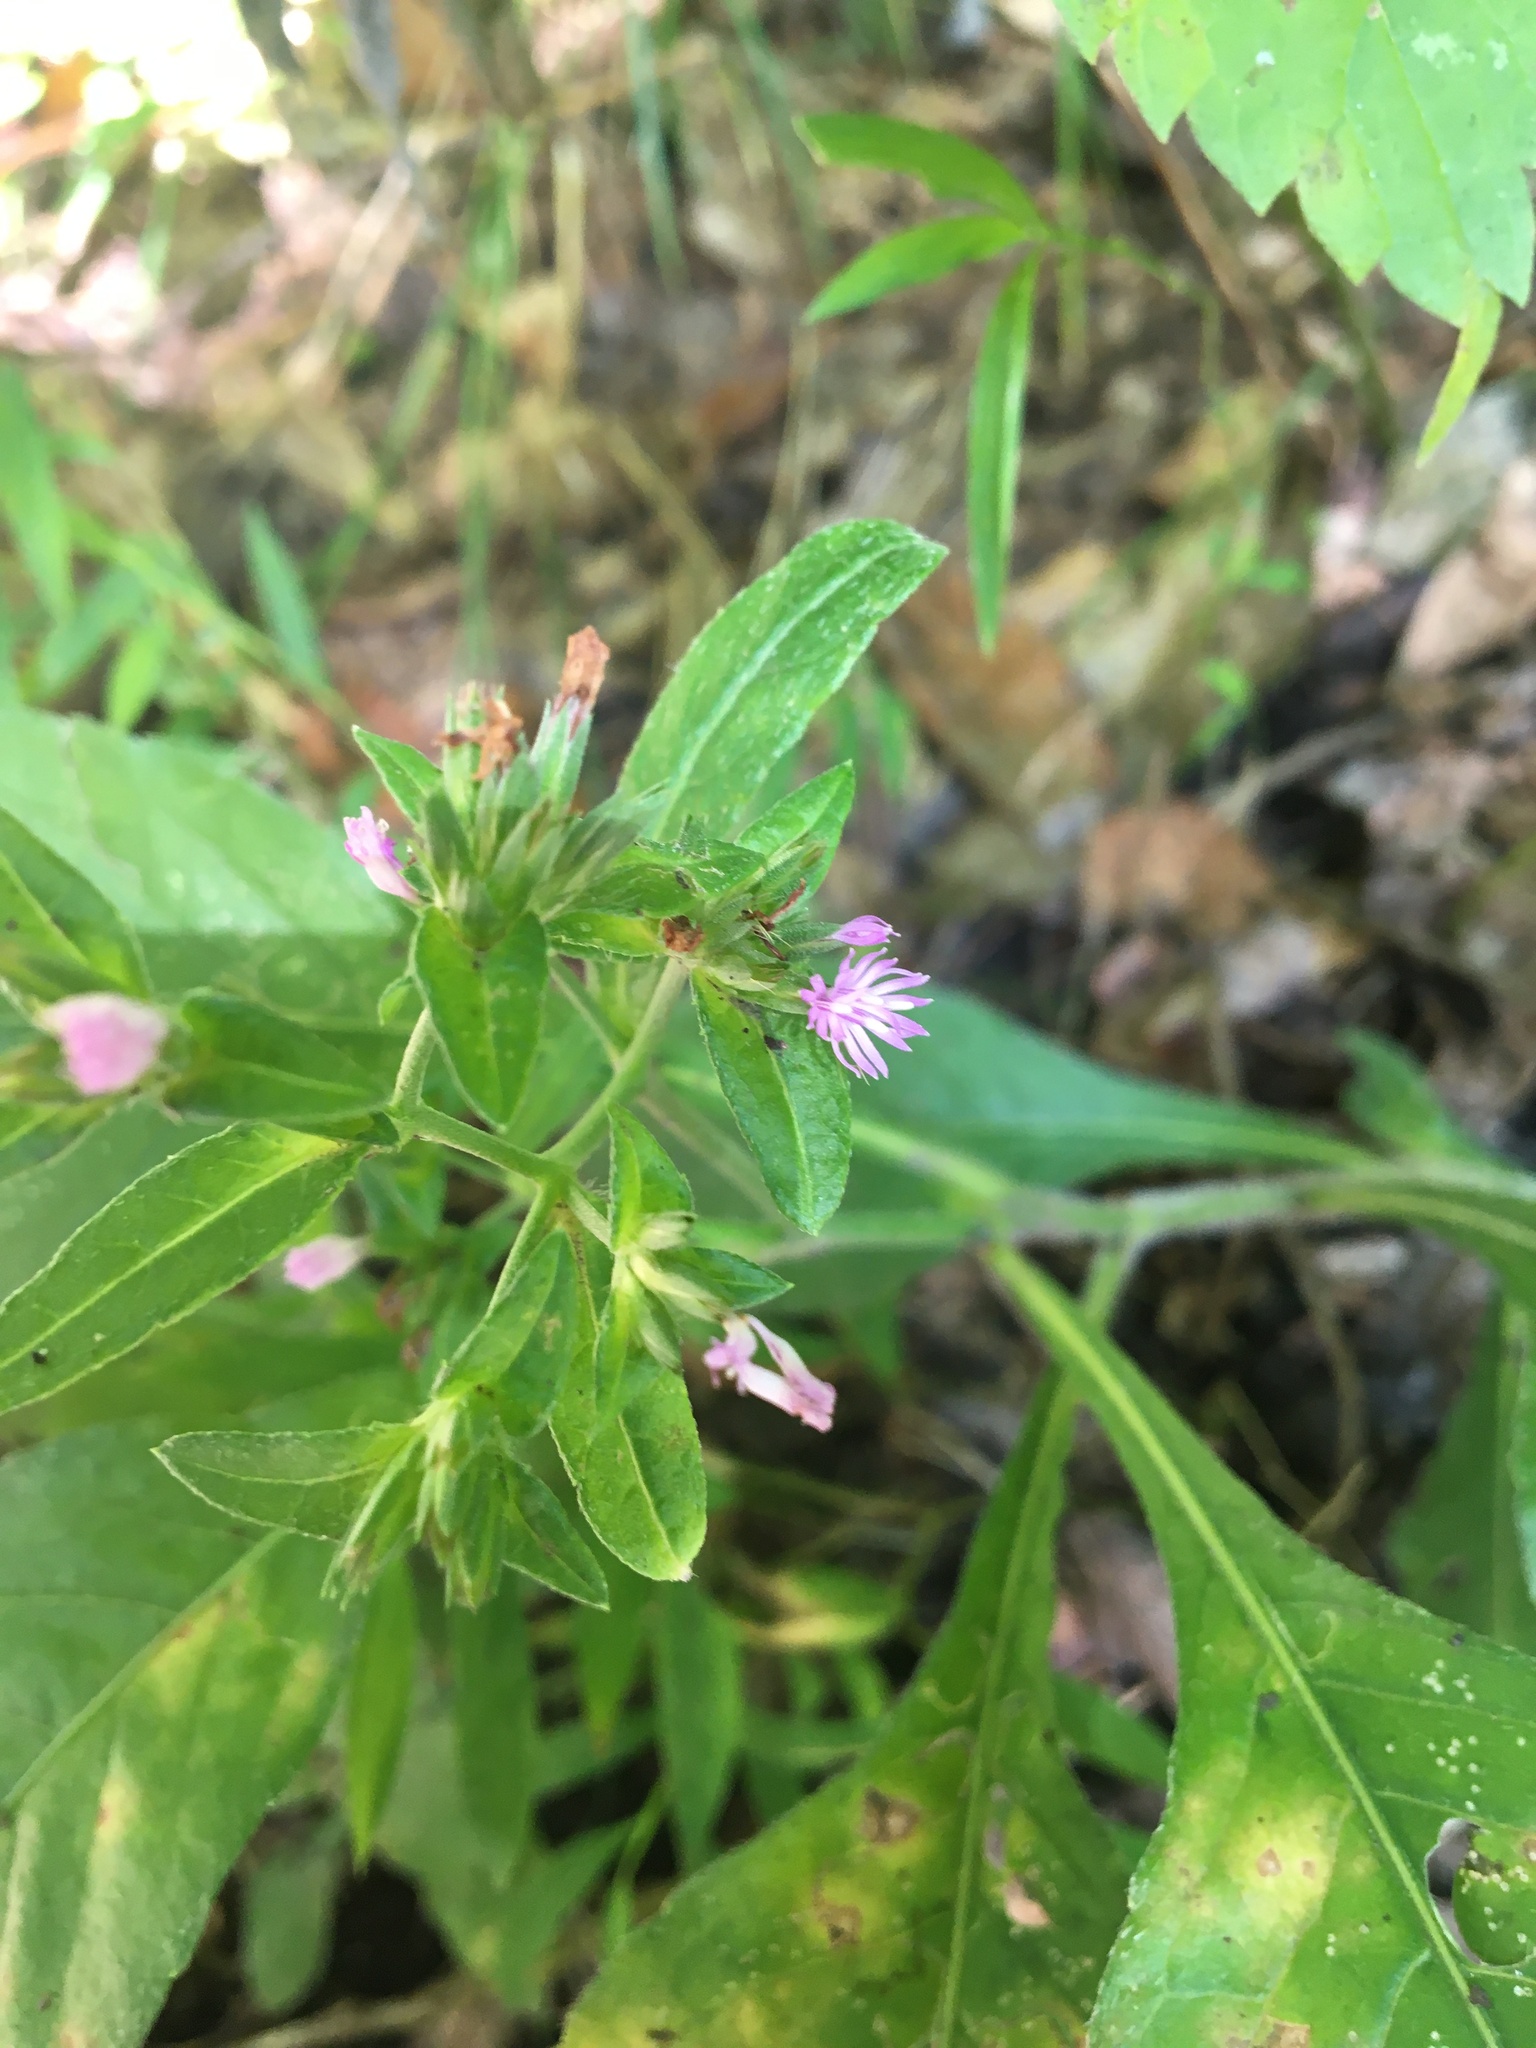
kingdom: Plantae
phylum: Tracheophyta
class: Magnoliopsida
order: Asterales
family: Asteraceae
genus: Elephantopus
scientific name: Elephantopus carolinianus
